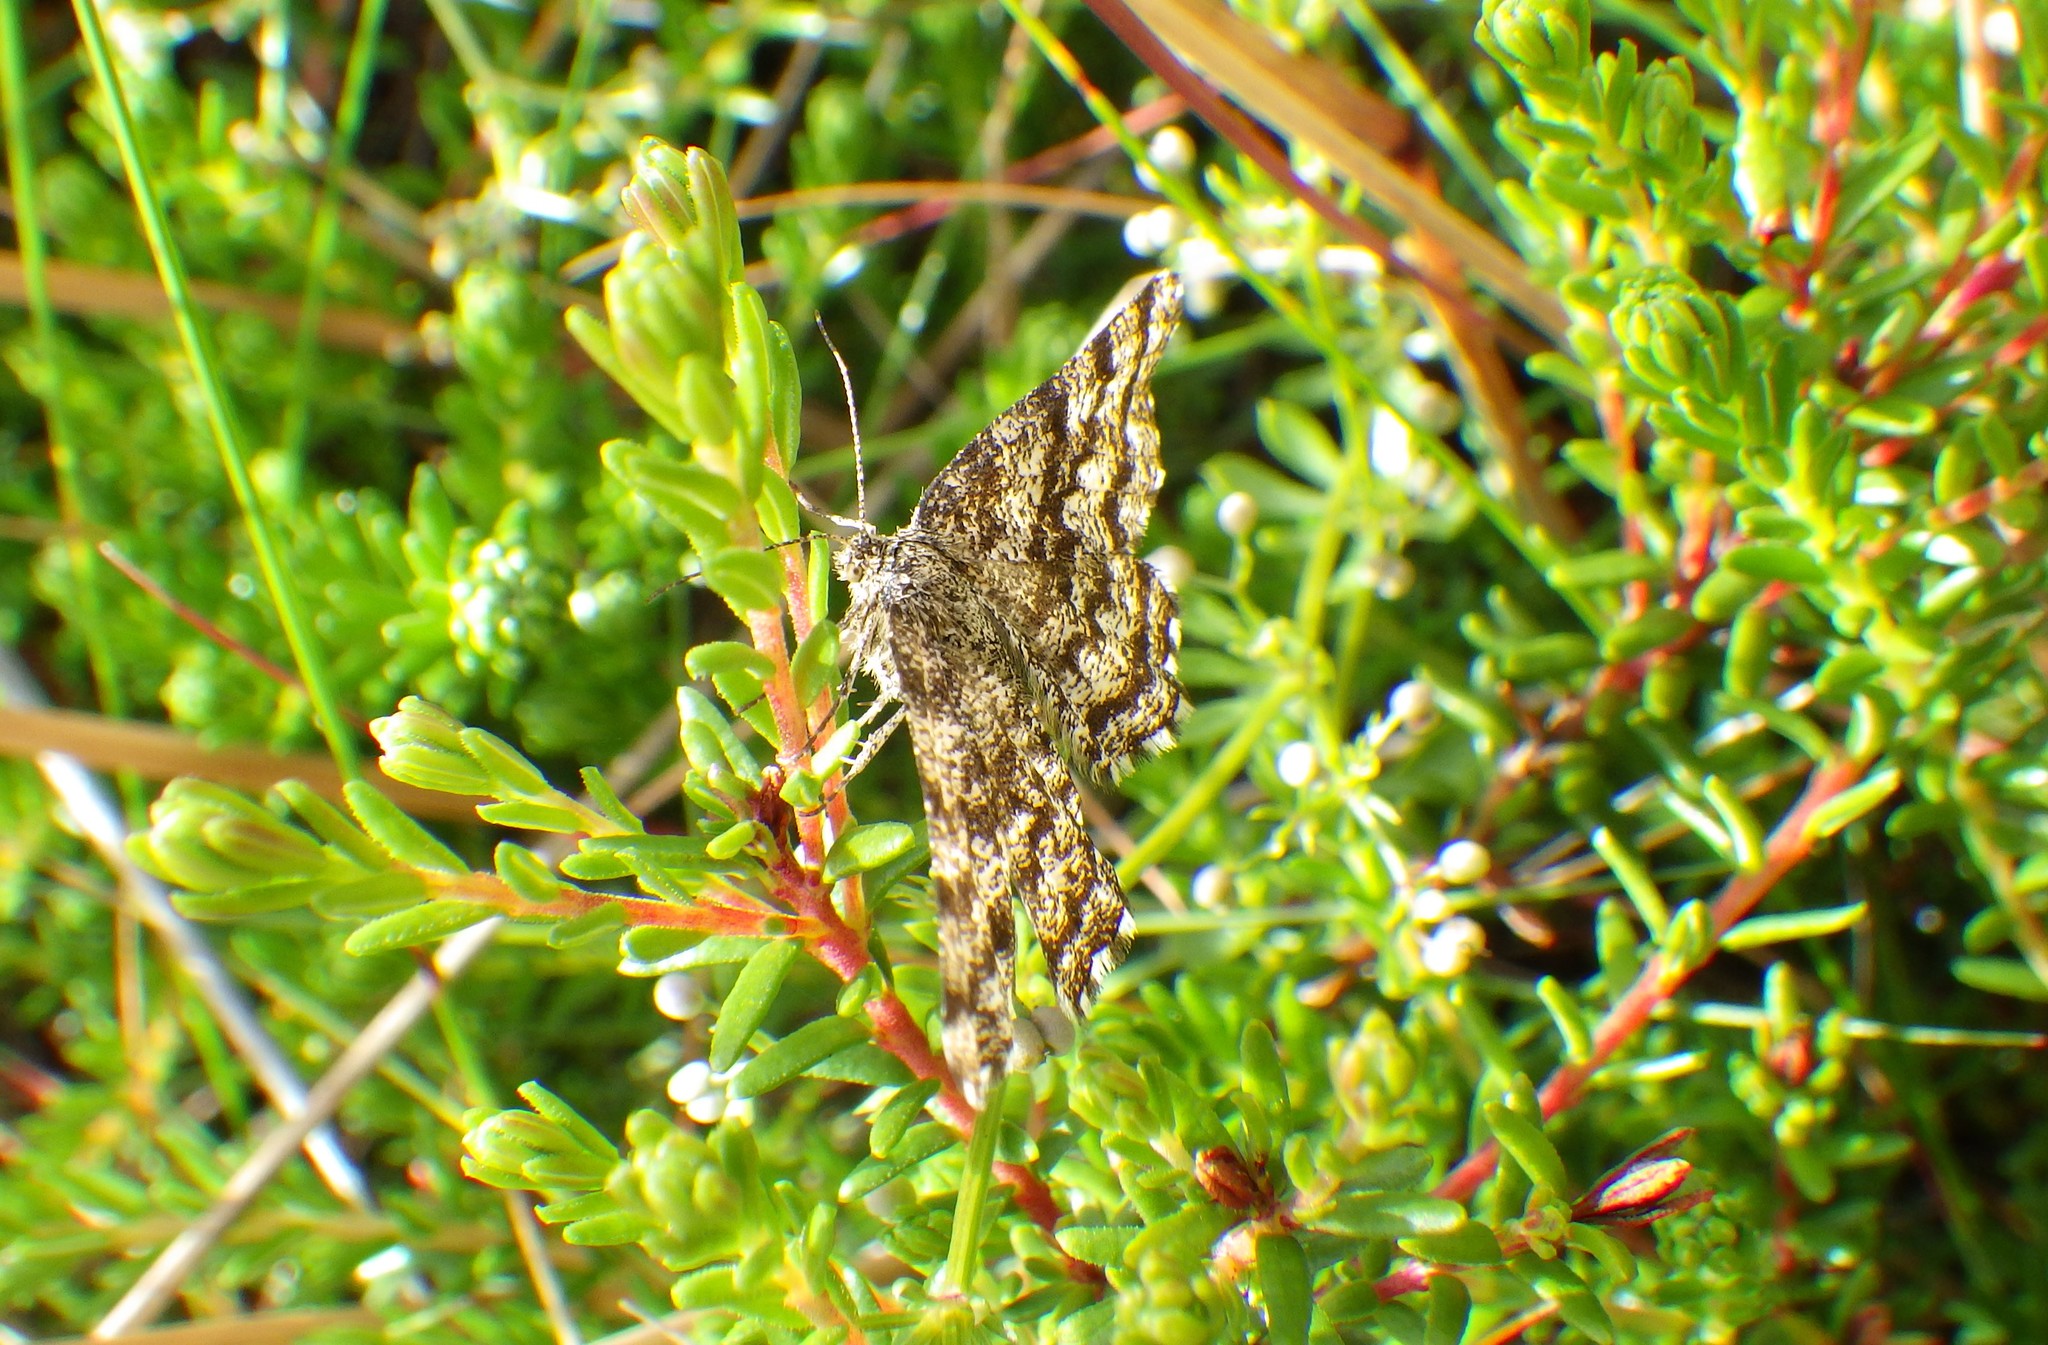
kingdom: Animalia
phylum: Arthropoda
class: Insecta
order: Lepidoptera
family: Geometridae
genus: Ematurga
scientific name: Ematurga atomaria
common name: Common heath
